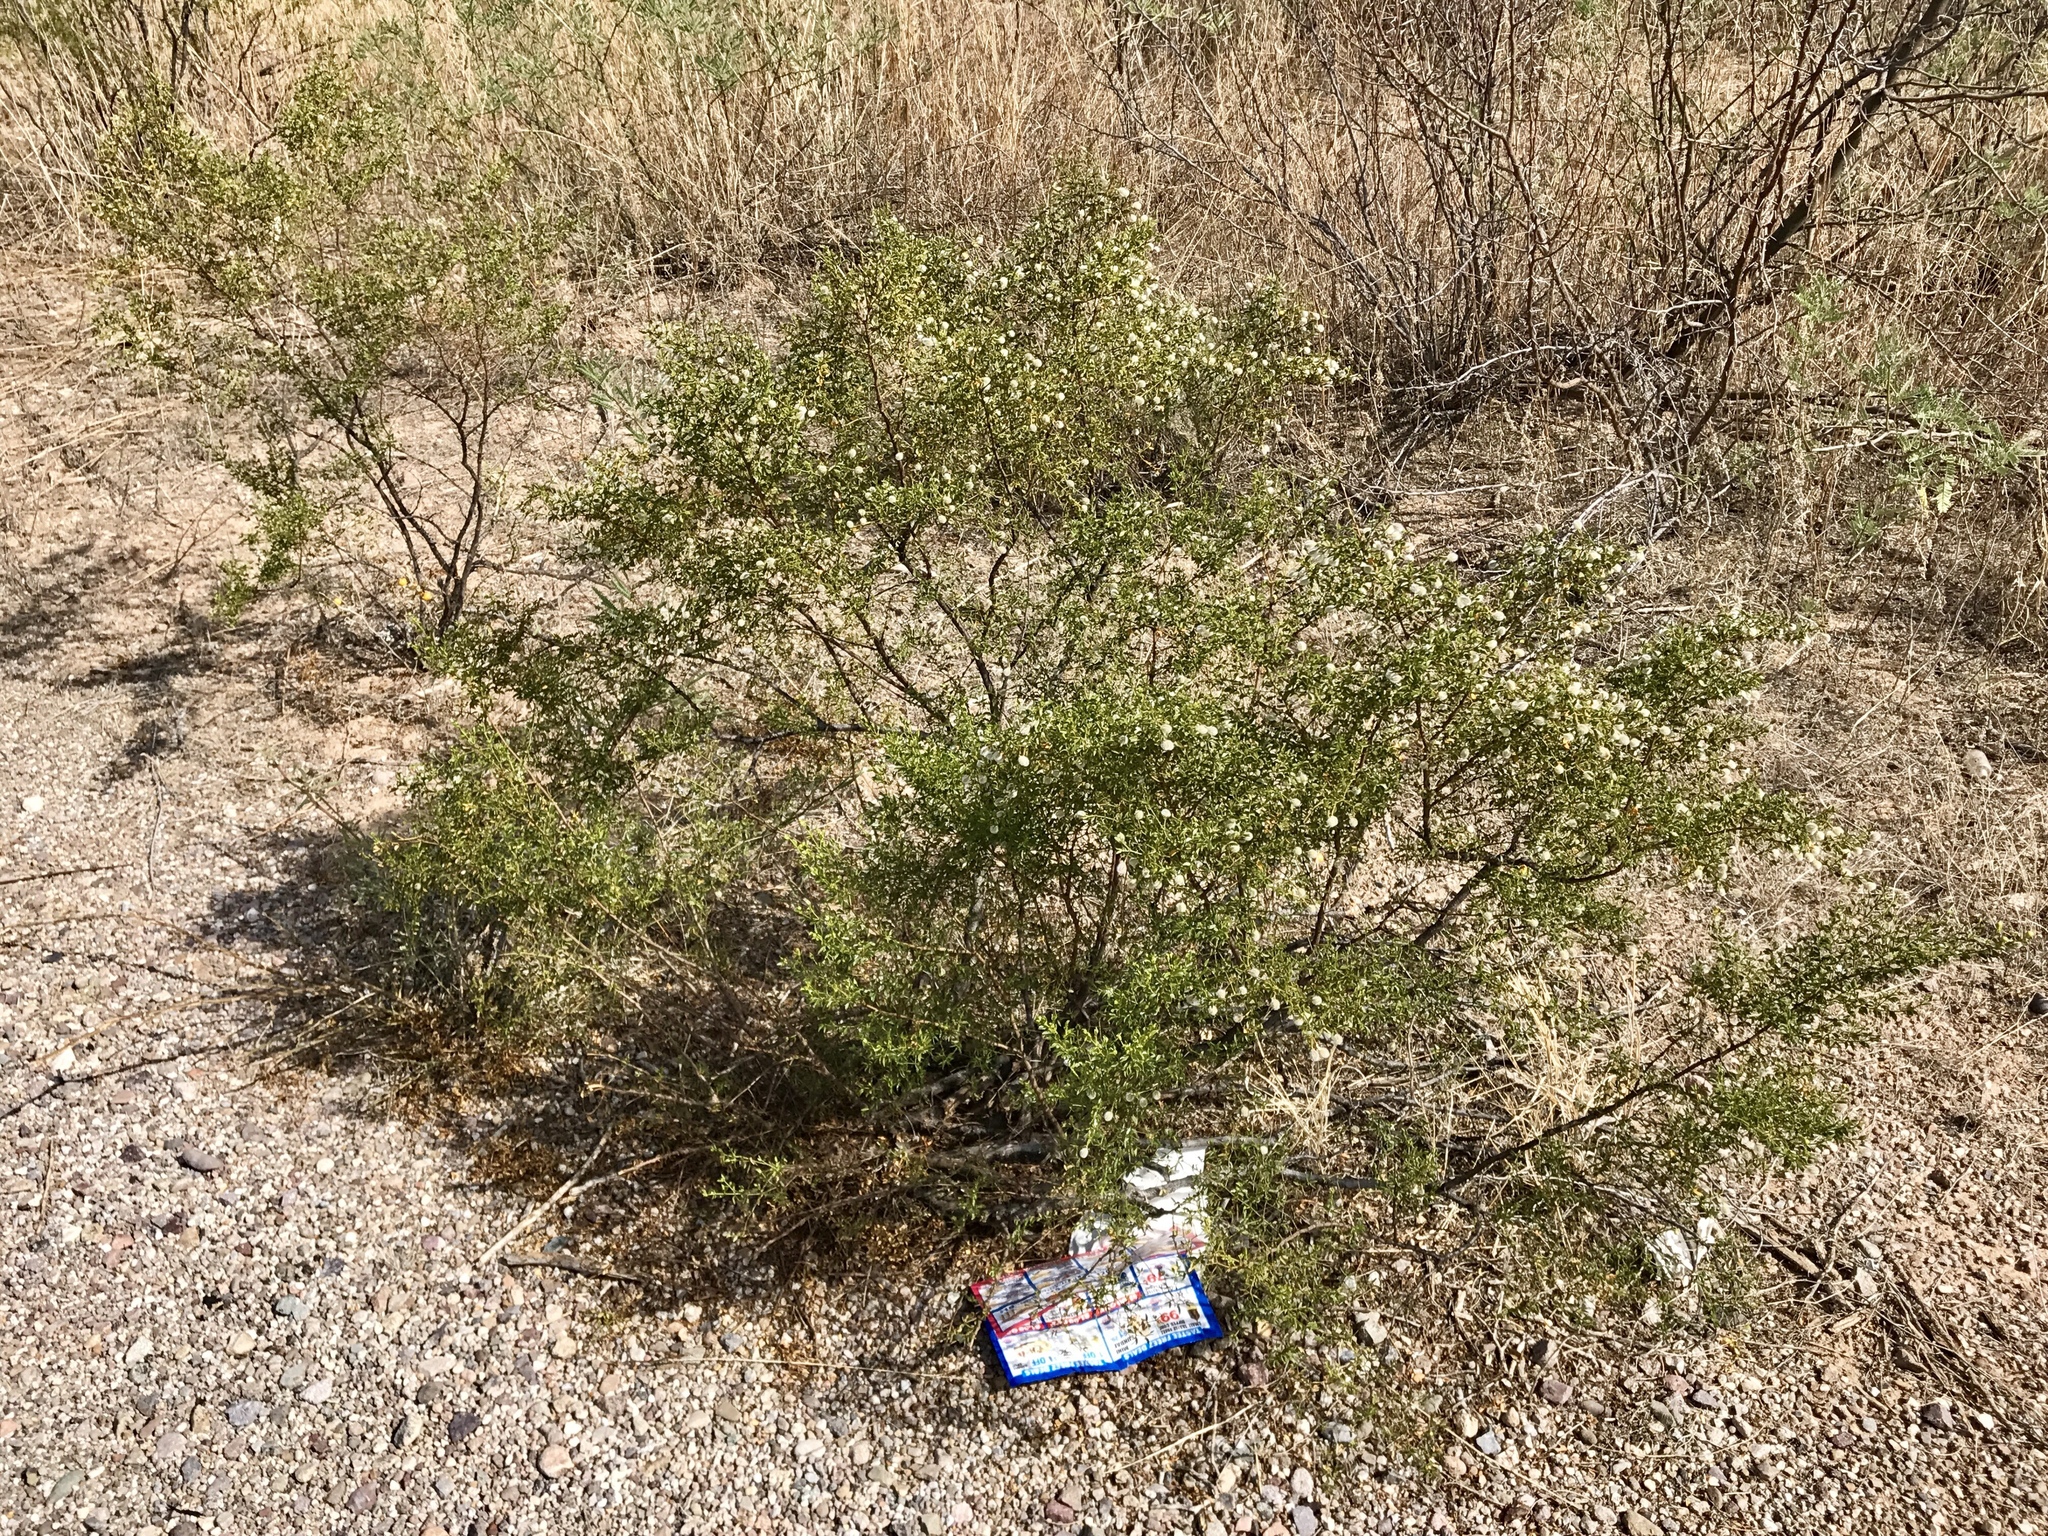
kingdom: Plantae
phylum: Tracheophyta
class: Magnoliopsida
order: Zygophyllales
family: Zygophyllaceae
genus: Larrea
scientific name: Larrea tridentata
